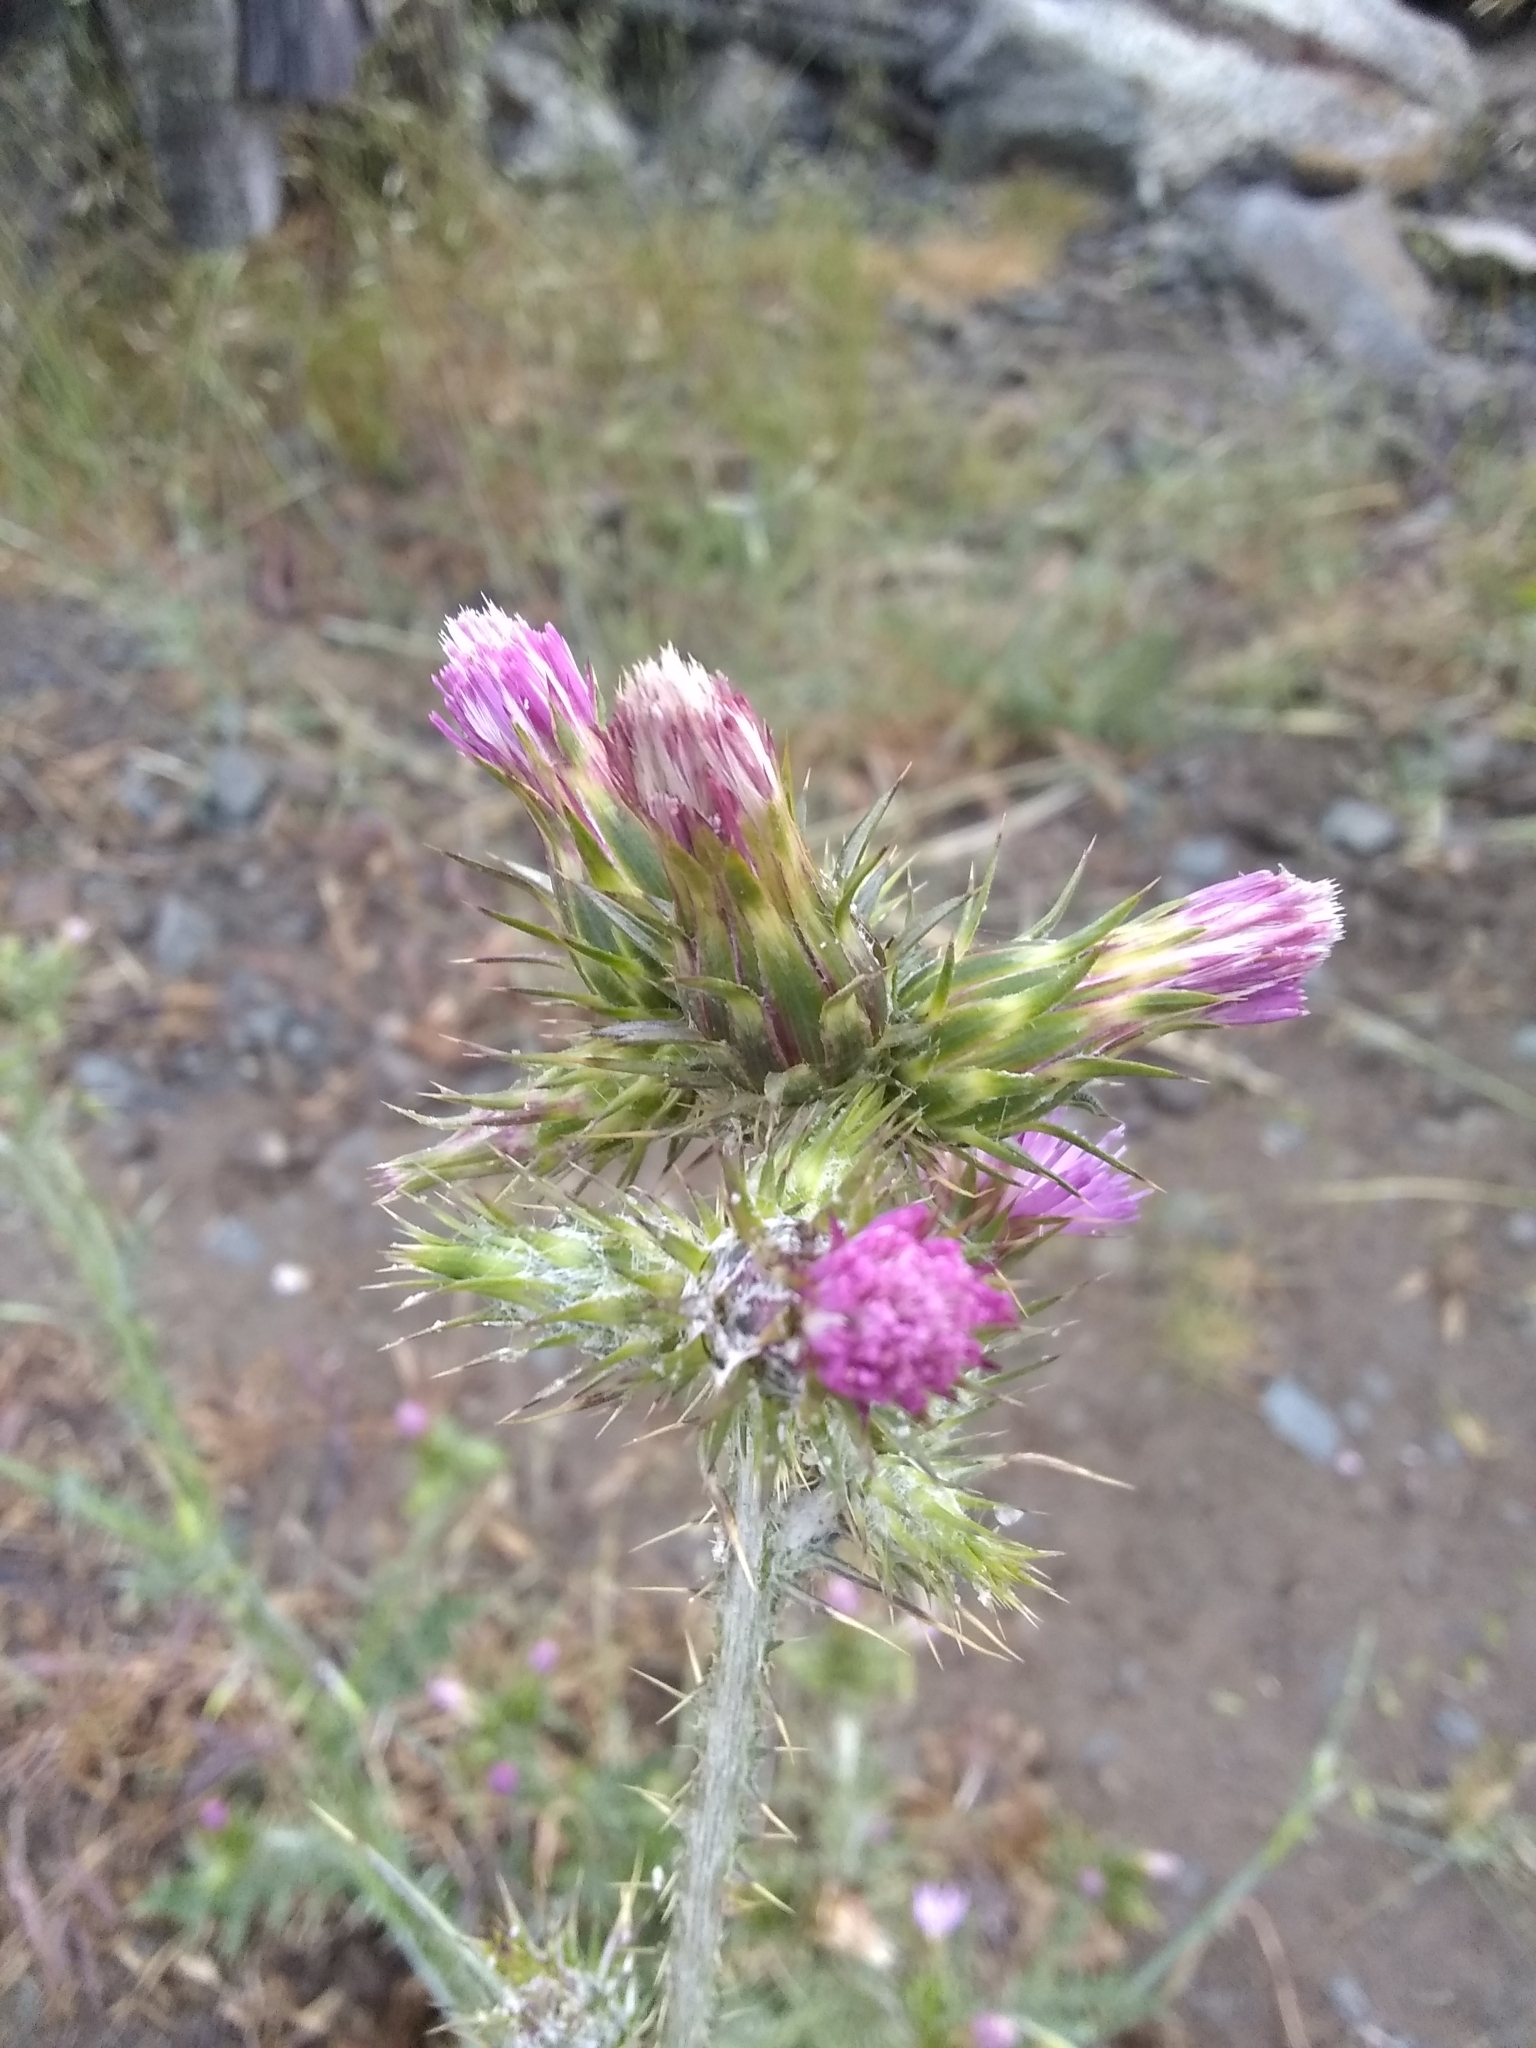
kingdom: Plantae
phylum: Tracheophyta
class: Magnoliopsida
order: Asterales
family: Asteraceae
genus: Carduus
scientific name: Carduus pycnocephalus
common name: Plymouth thistle
